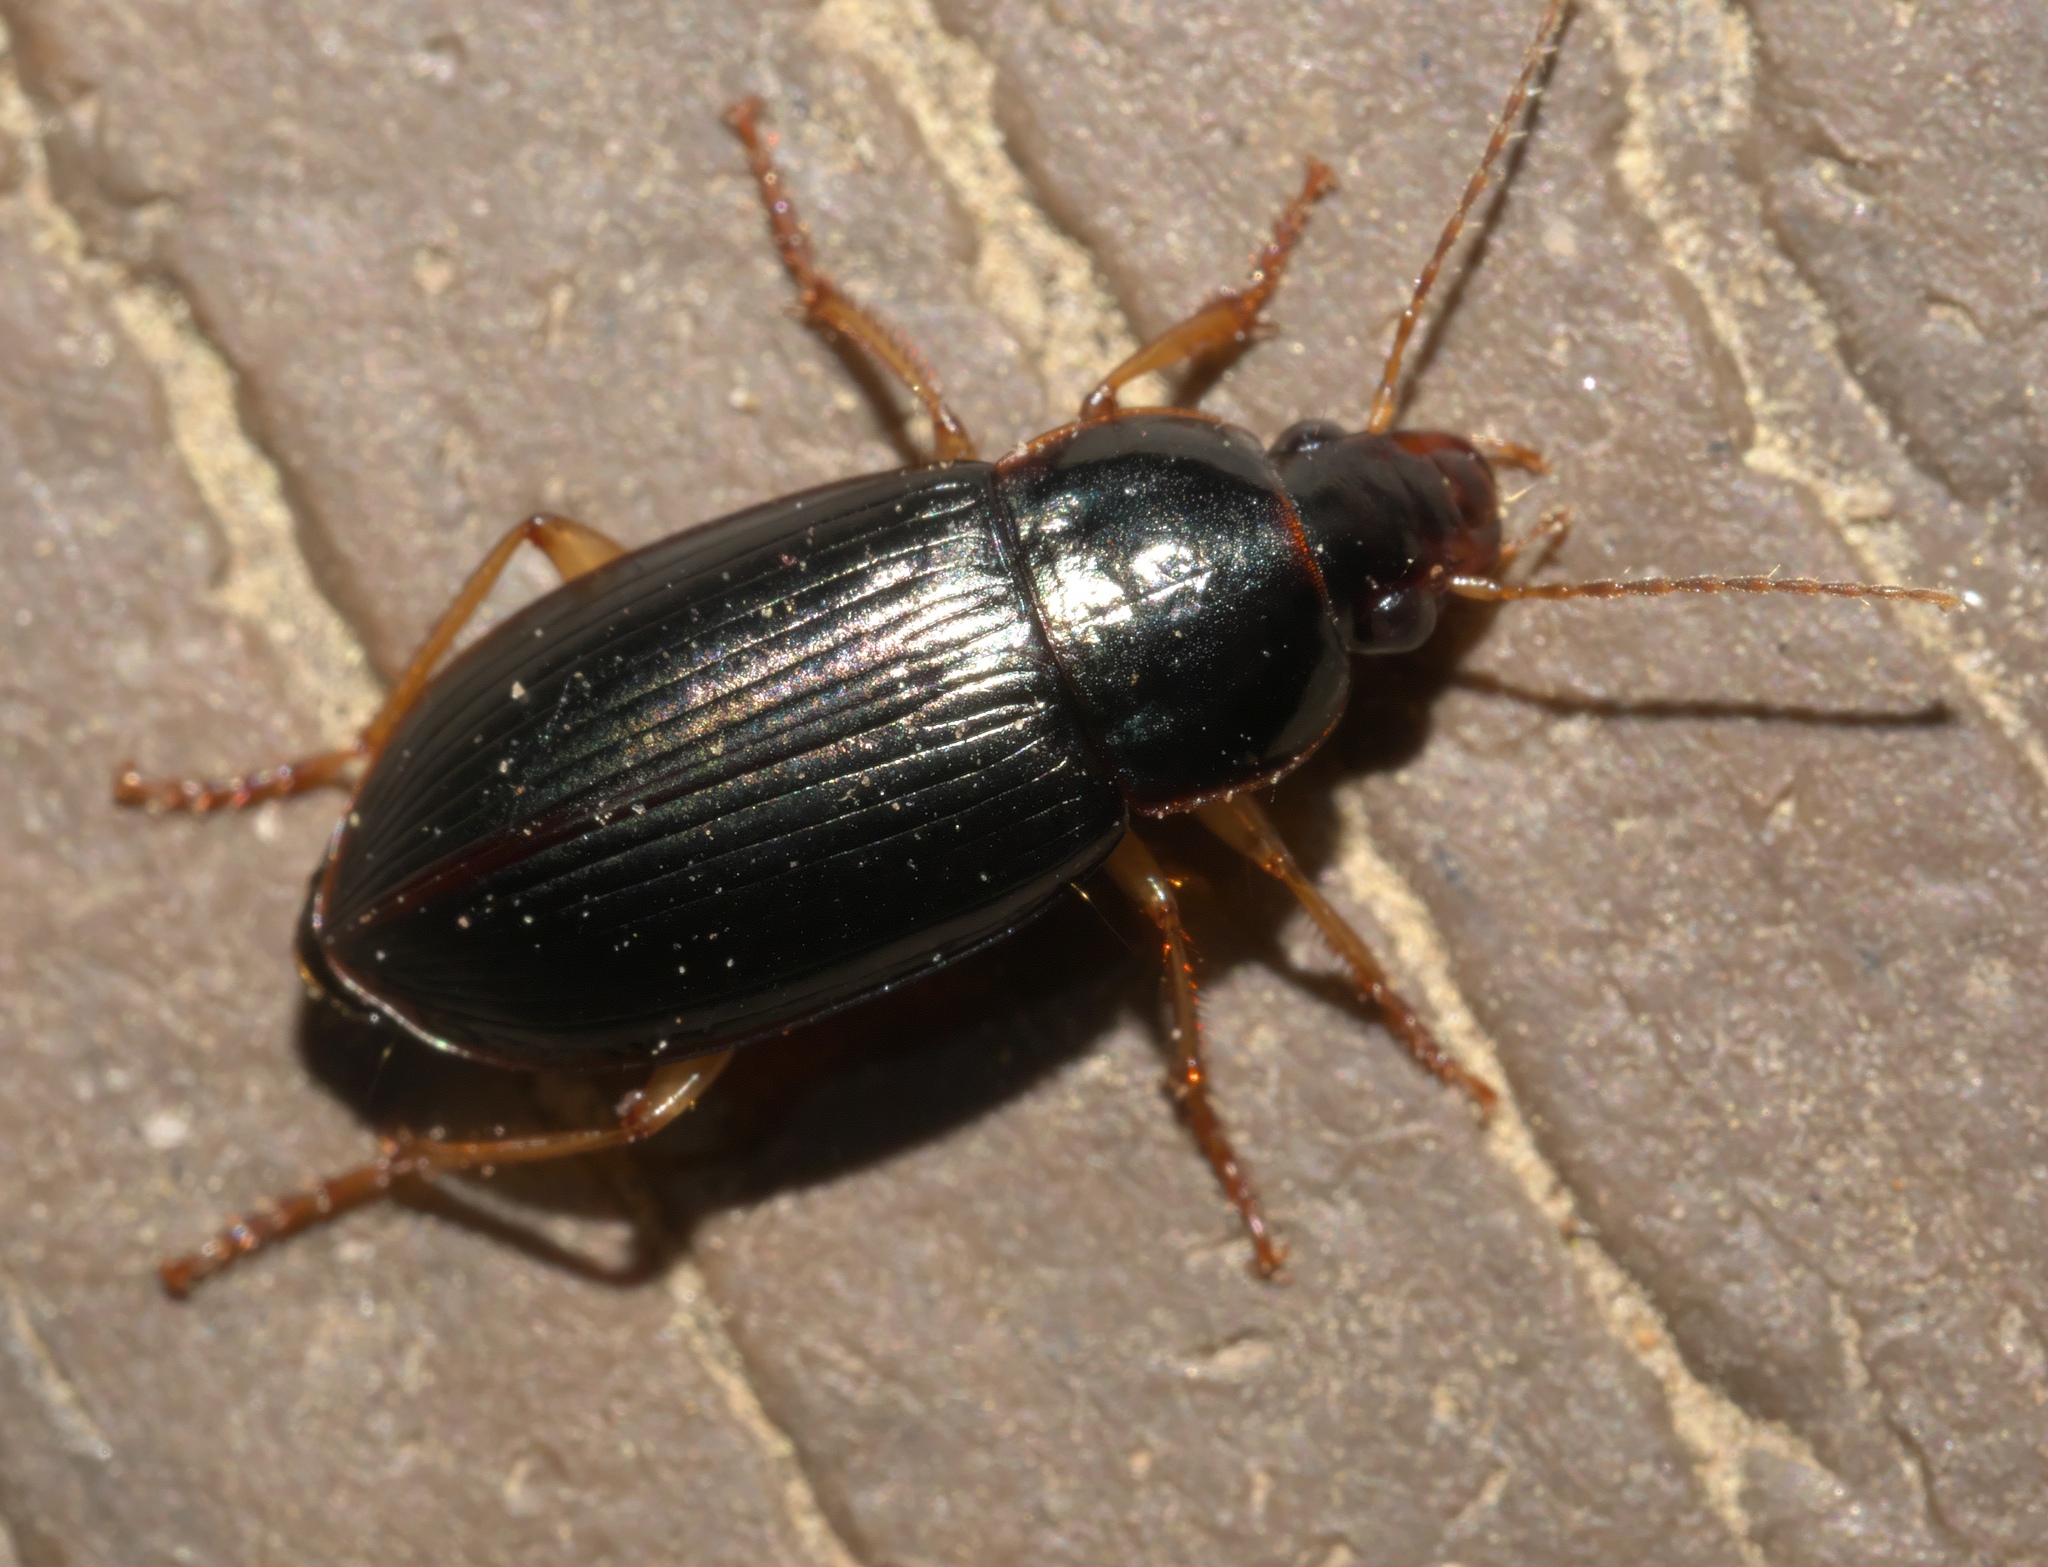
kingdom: Animalia
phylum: Arthropoda
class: Insecta
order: Coleoptera
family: Carabidae
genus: Notiobia
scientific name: Notiobia terminata
